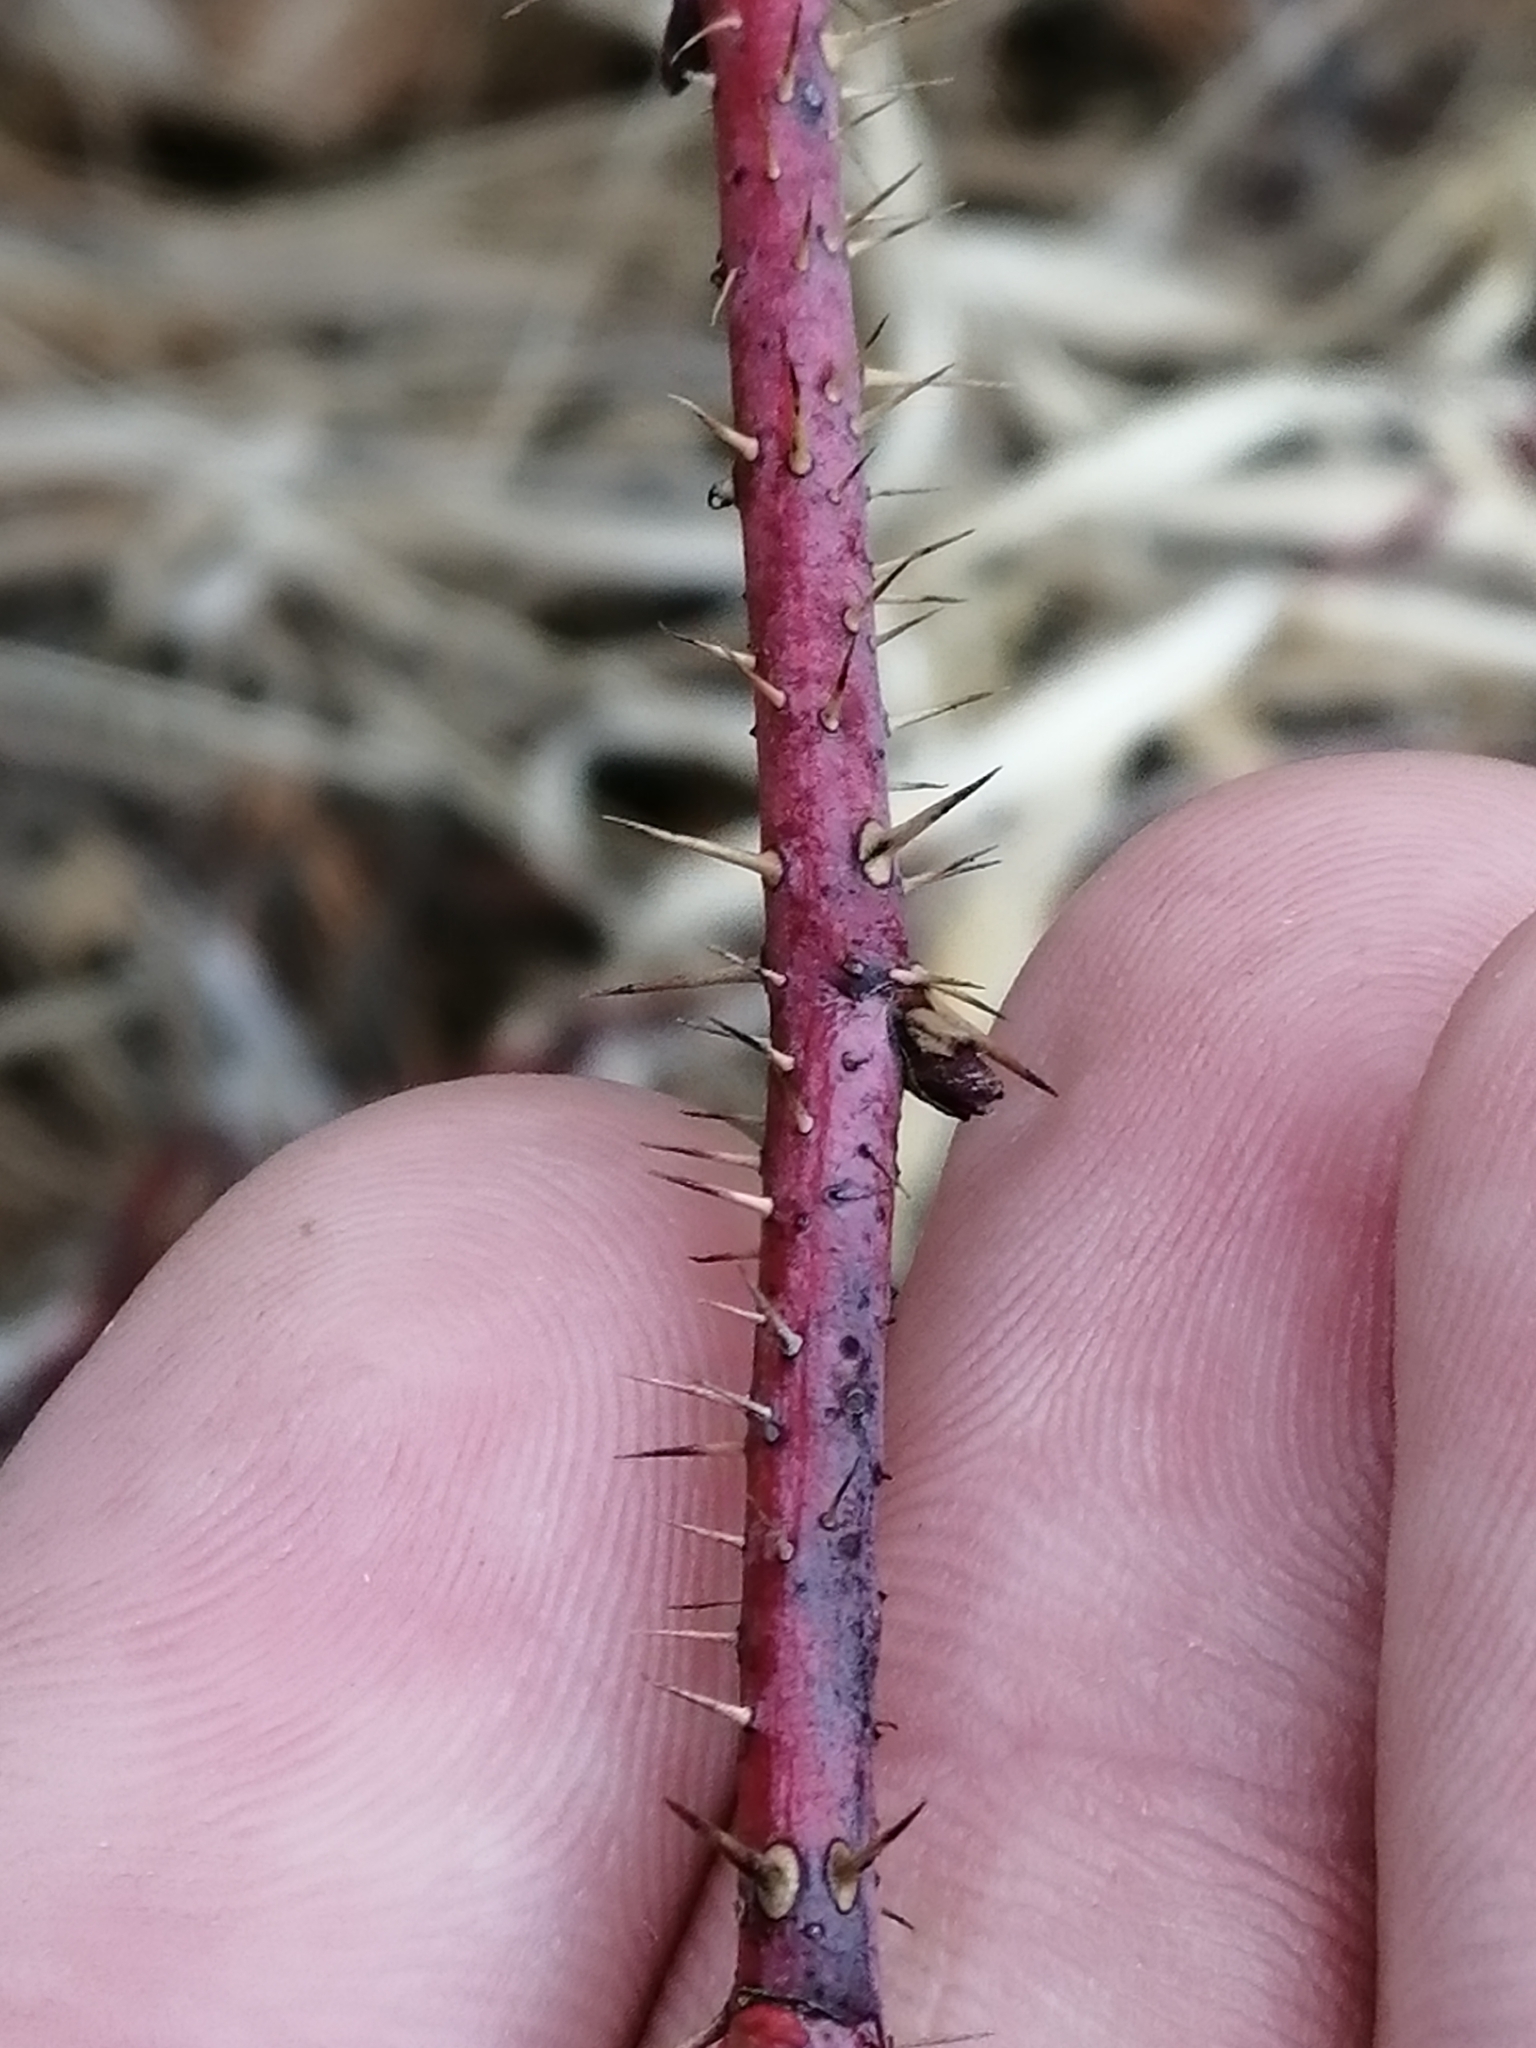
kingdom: Plantae
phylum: Tracheophyta
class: Magnoliopsida
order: Rosales
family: Rosaceae
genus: Rosa
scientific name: Rosa acicularis
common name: Prickly rose
